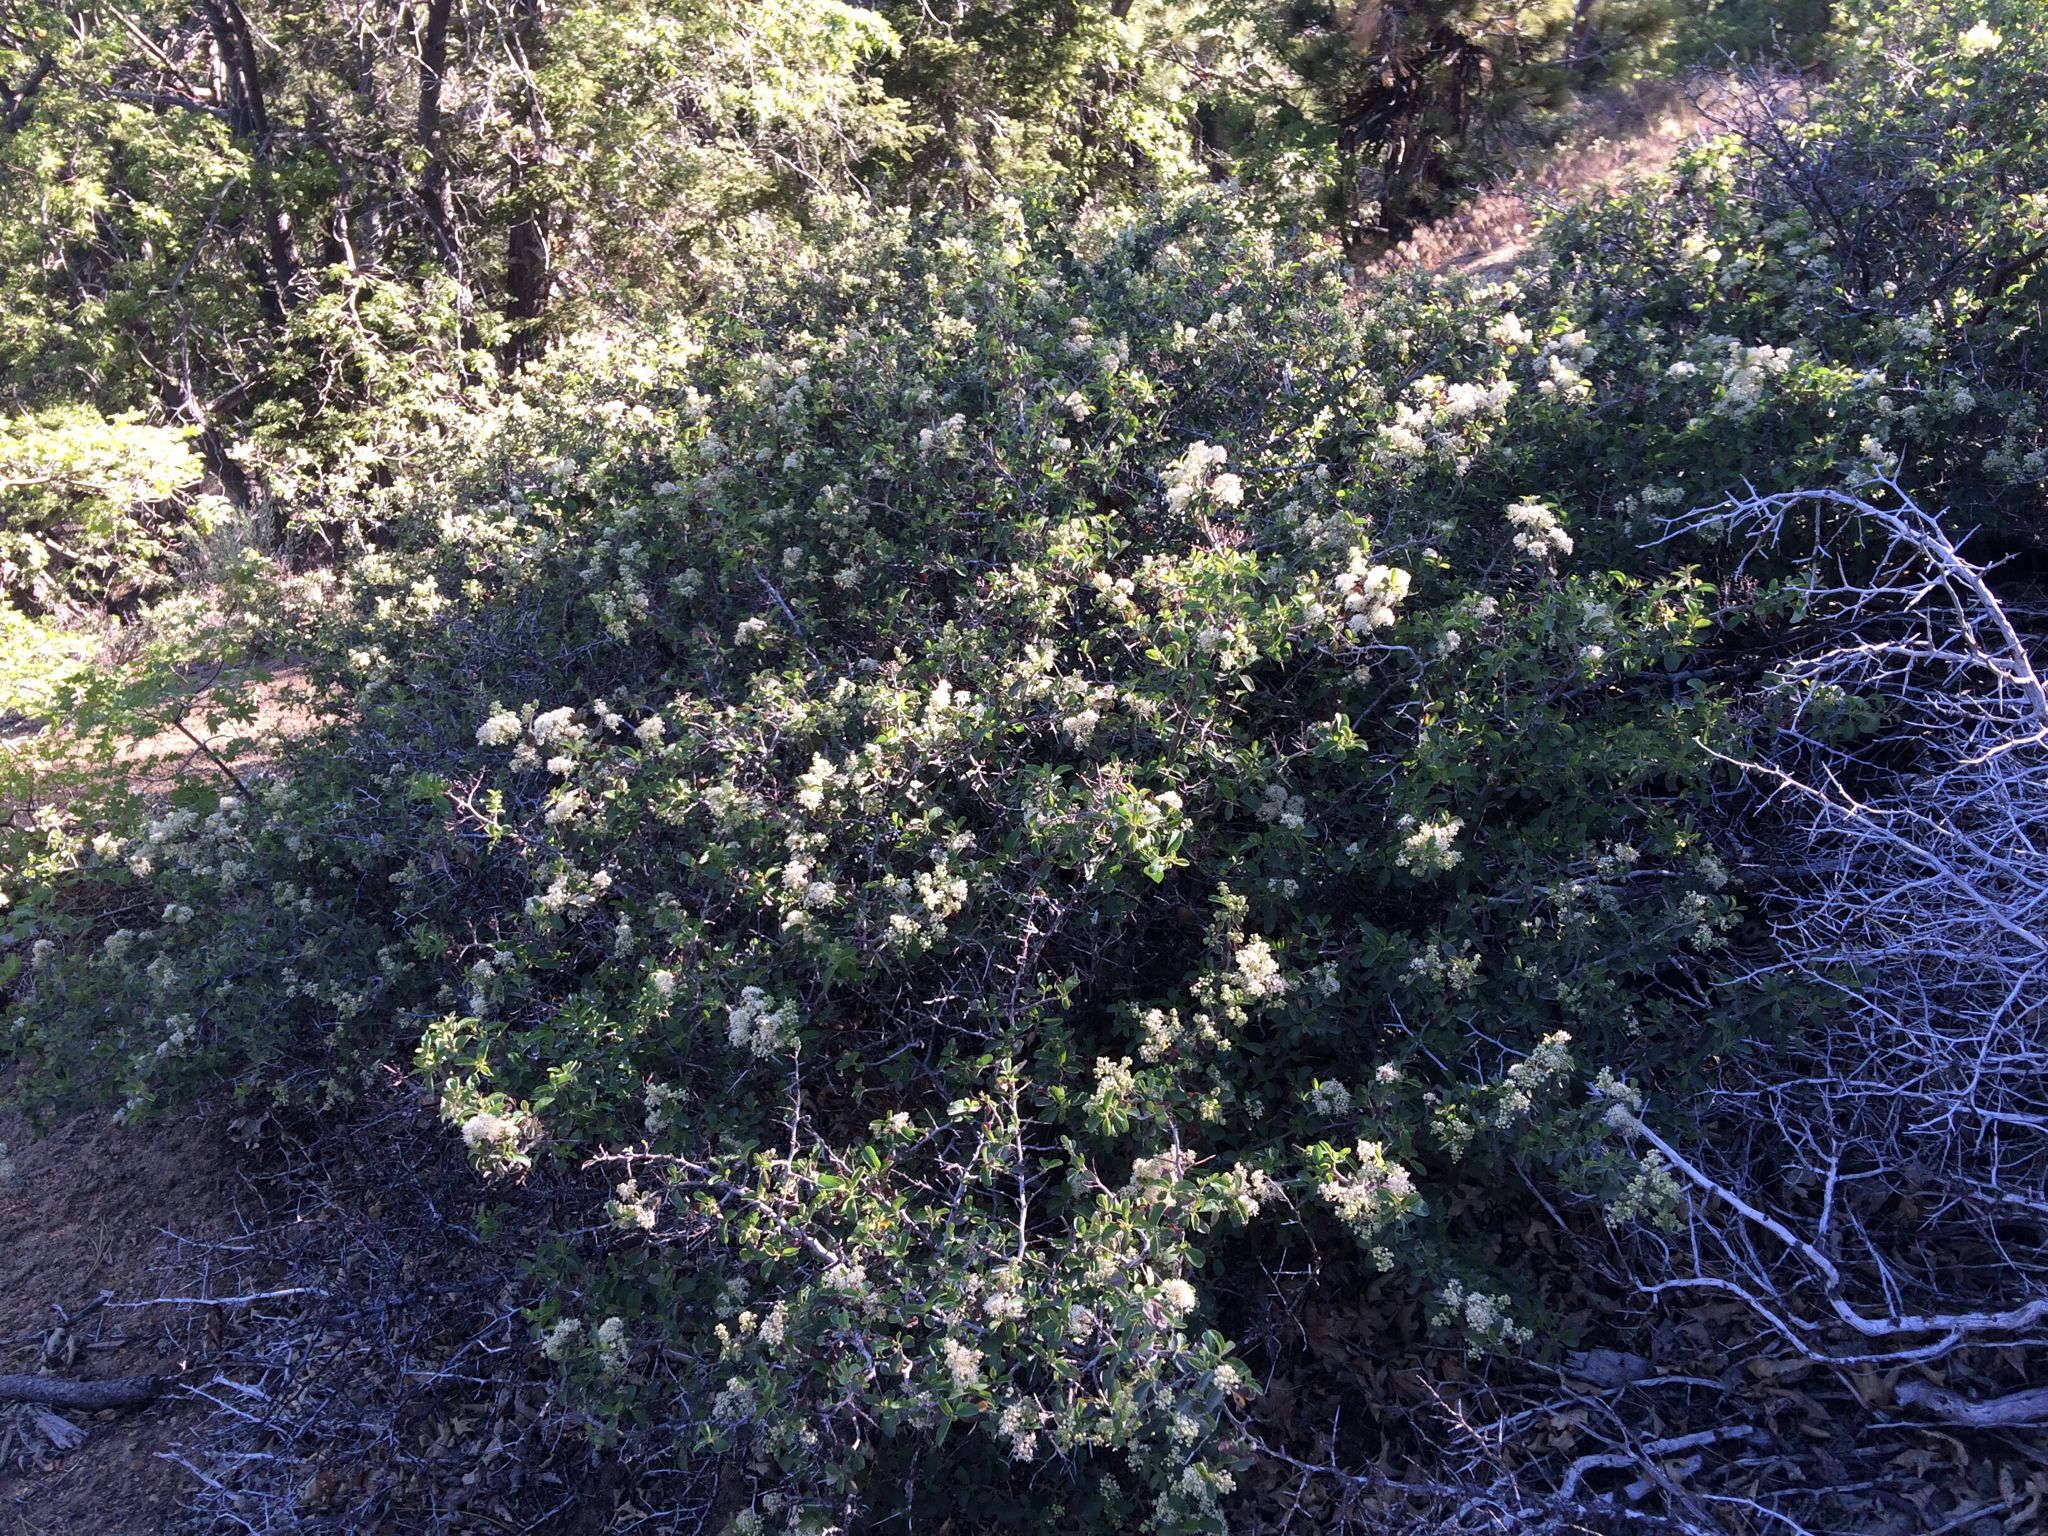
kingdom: Plantae
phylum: Tracheophyta
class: Magnoliopsida
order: Rosales
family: Rhamnaceae
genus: Ceanothus
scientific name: Ceanothus cordulatus
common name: Mountain whitethorn
